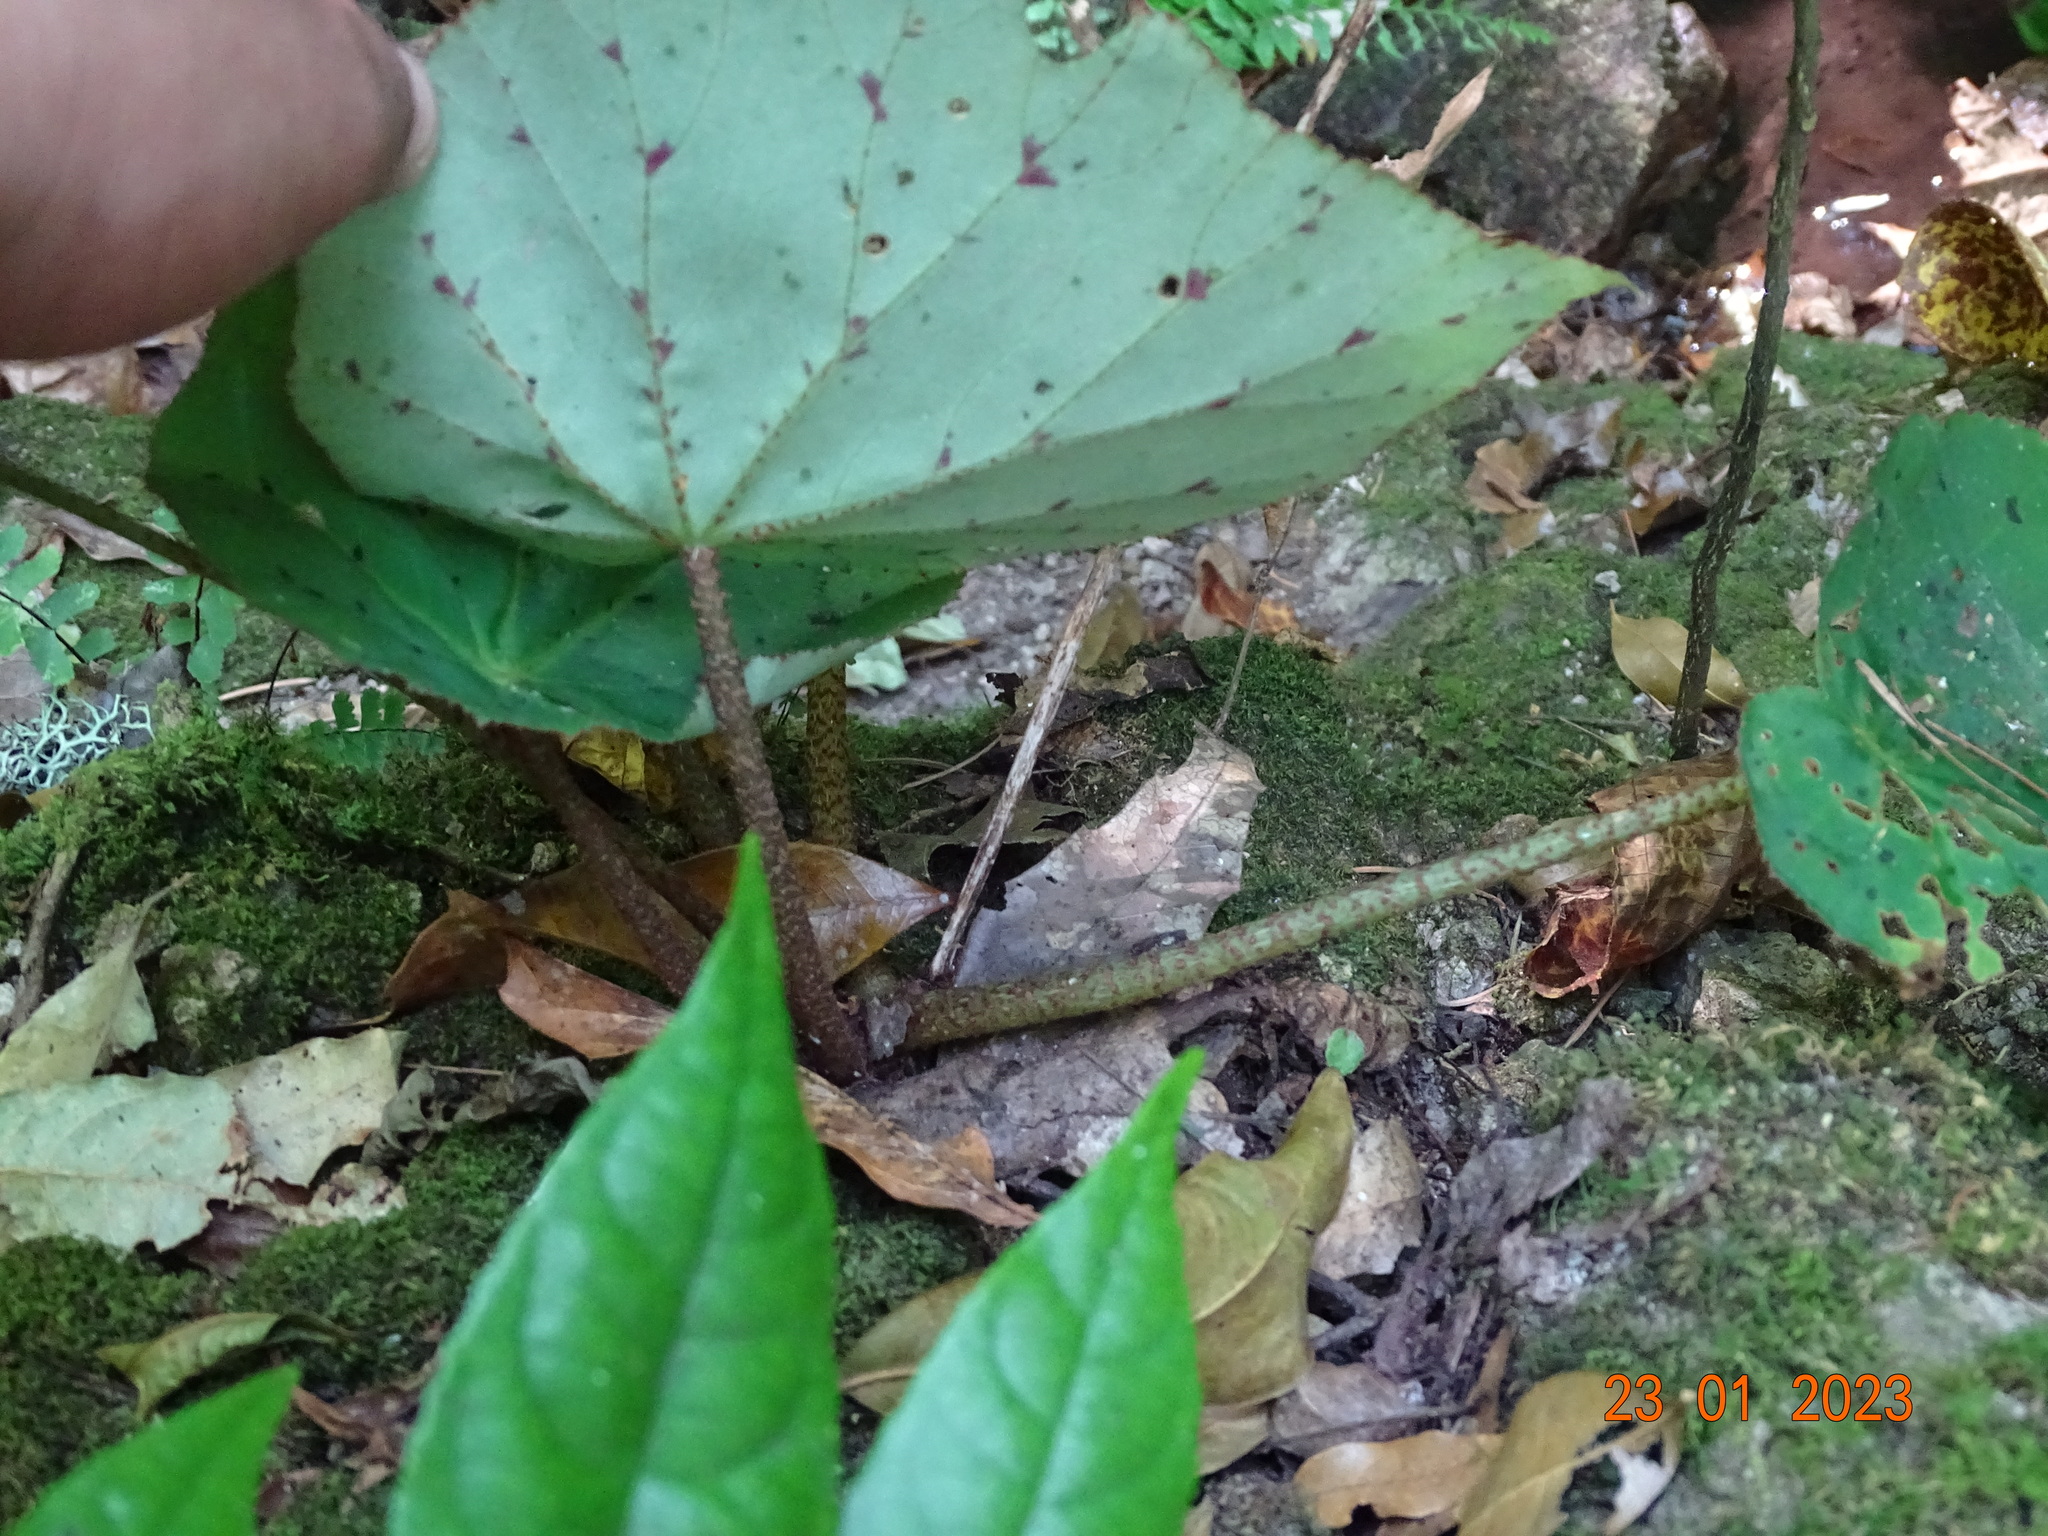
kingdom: Plantae
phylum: Tracheophyta
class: Magnoliopsida
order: Cucurbitales
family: Begoniaceae
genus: Begonia
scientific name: Begonia stigmosa
